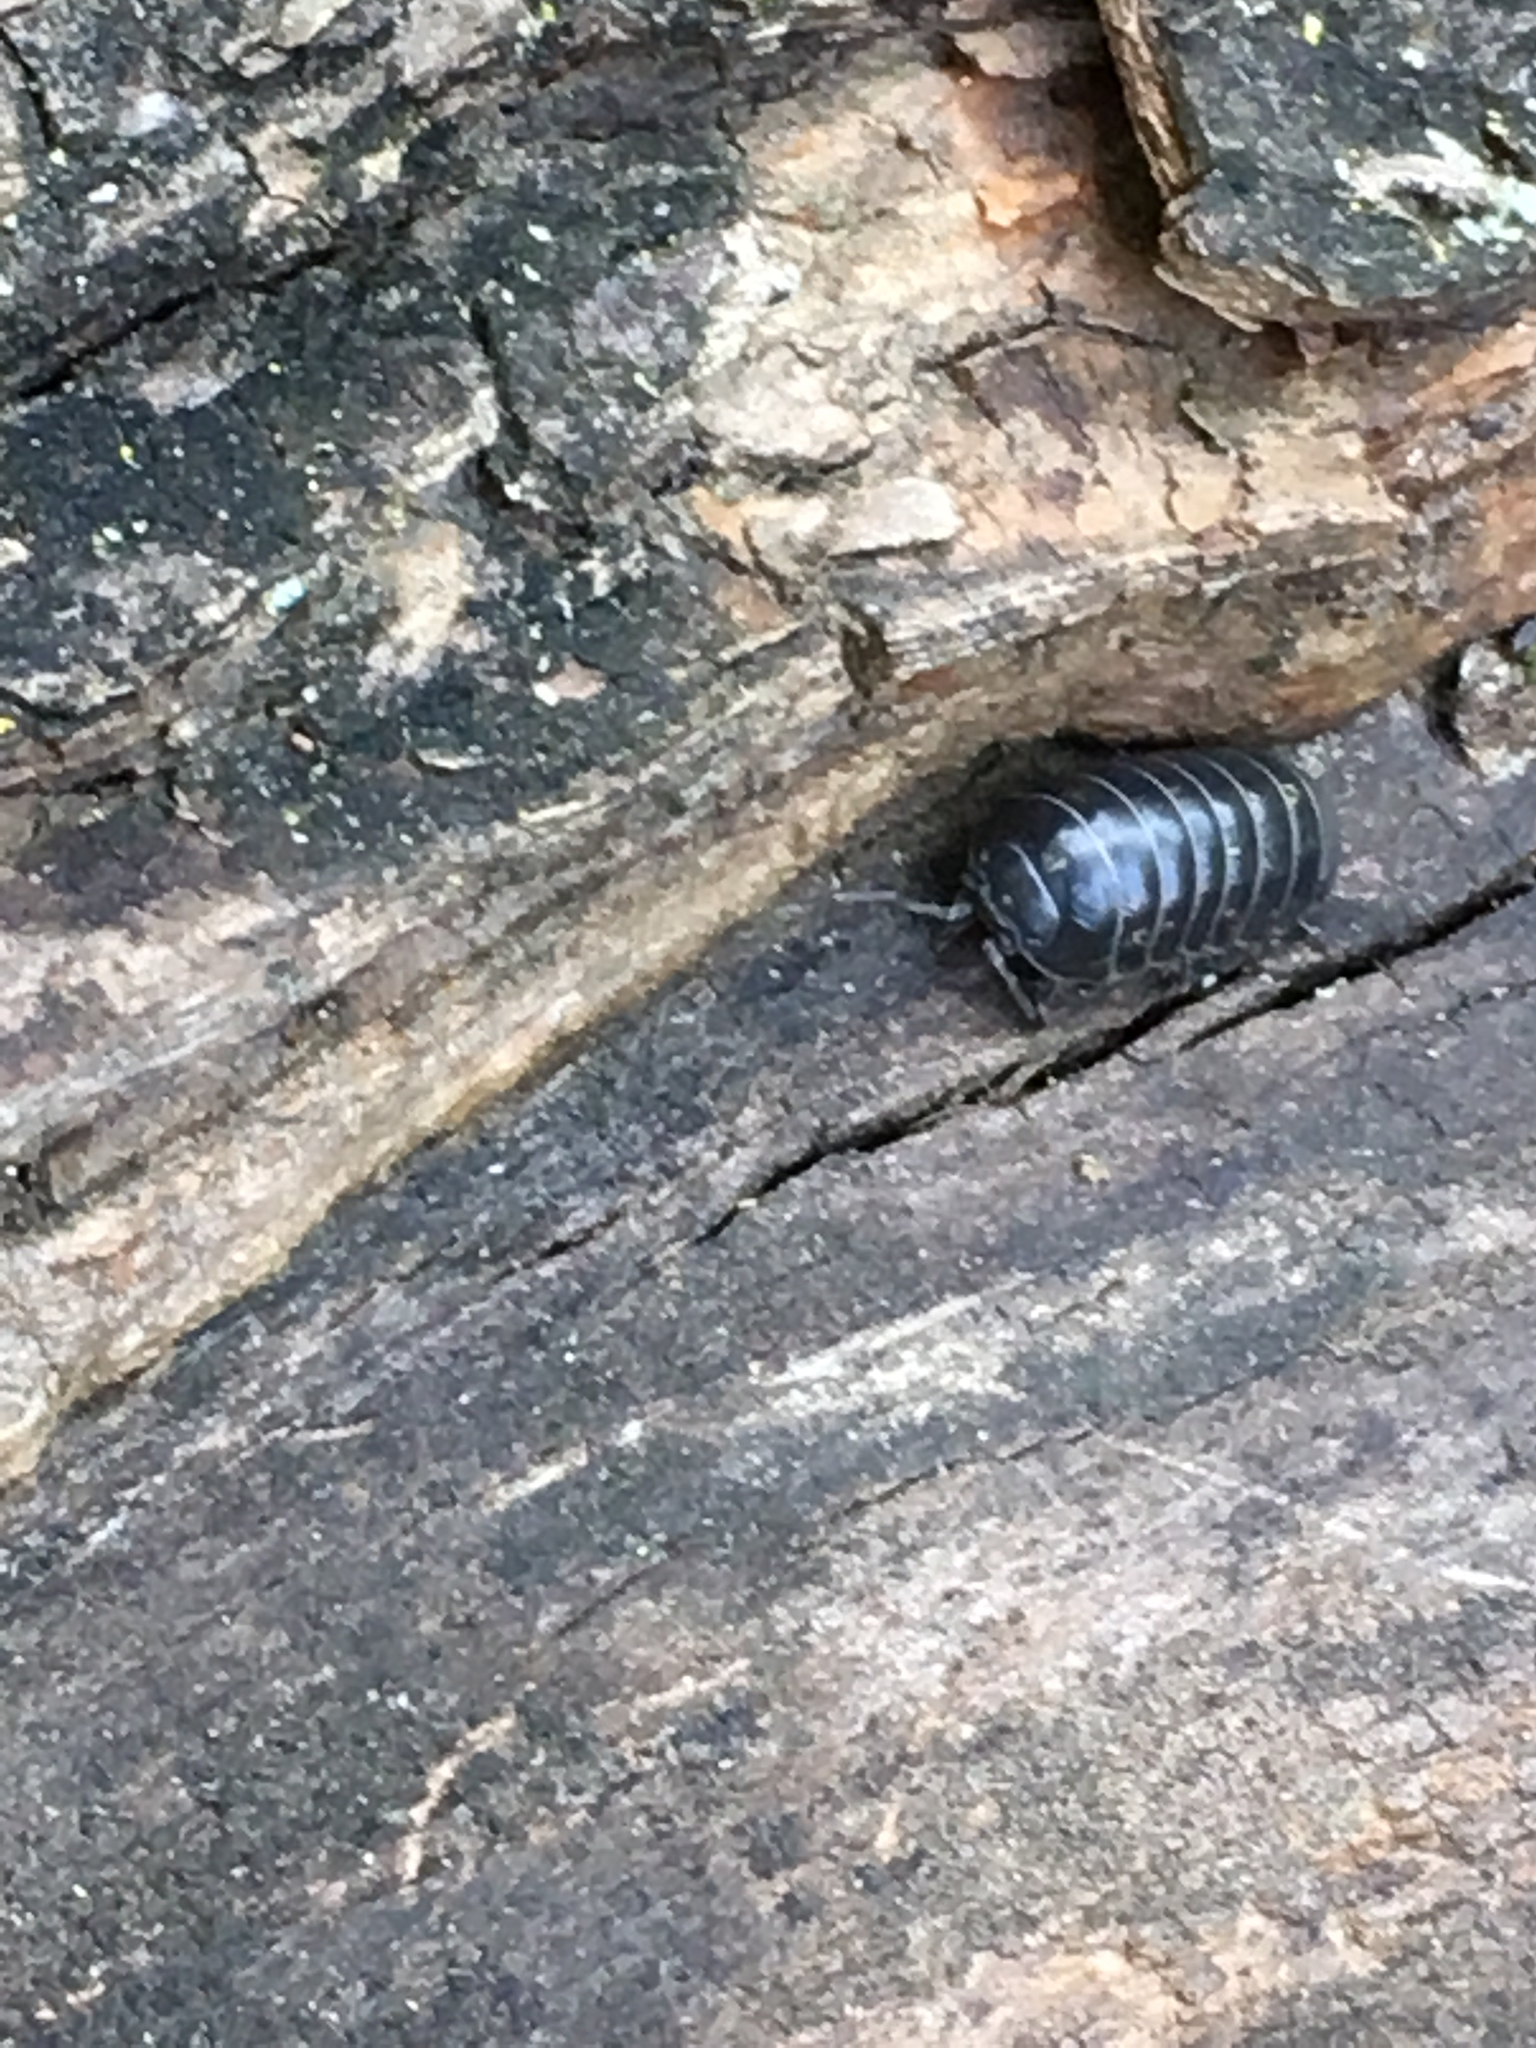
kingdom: Animalia
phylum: Arthropoda
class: Malacostraca
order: Isopoda
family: Armadillidiidae
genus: Armadillidium
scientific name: Armadillidium vulgare
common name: Common pill woodlouse
